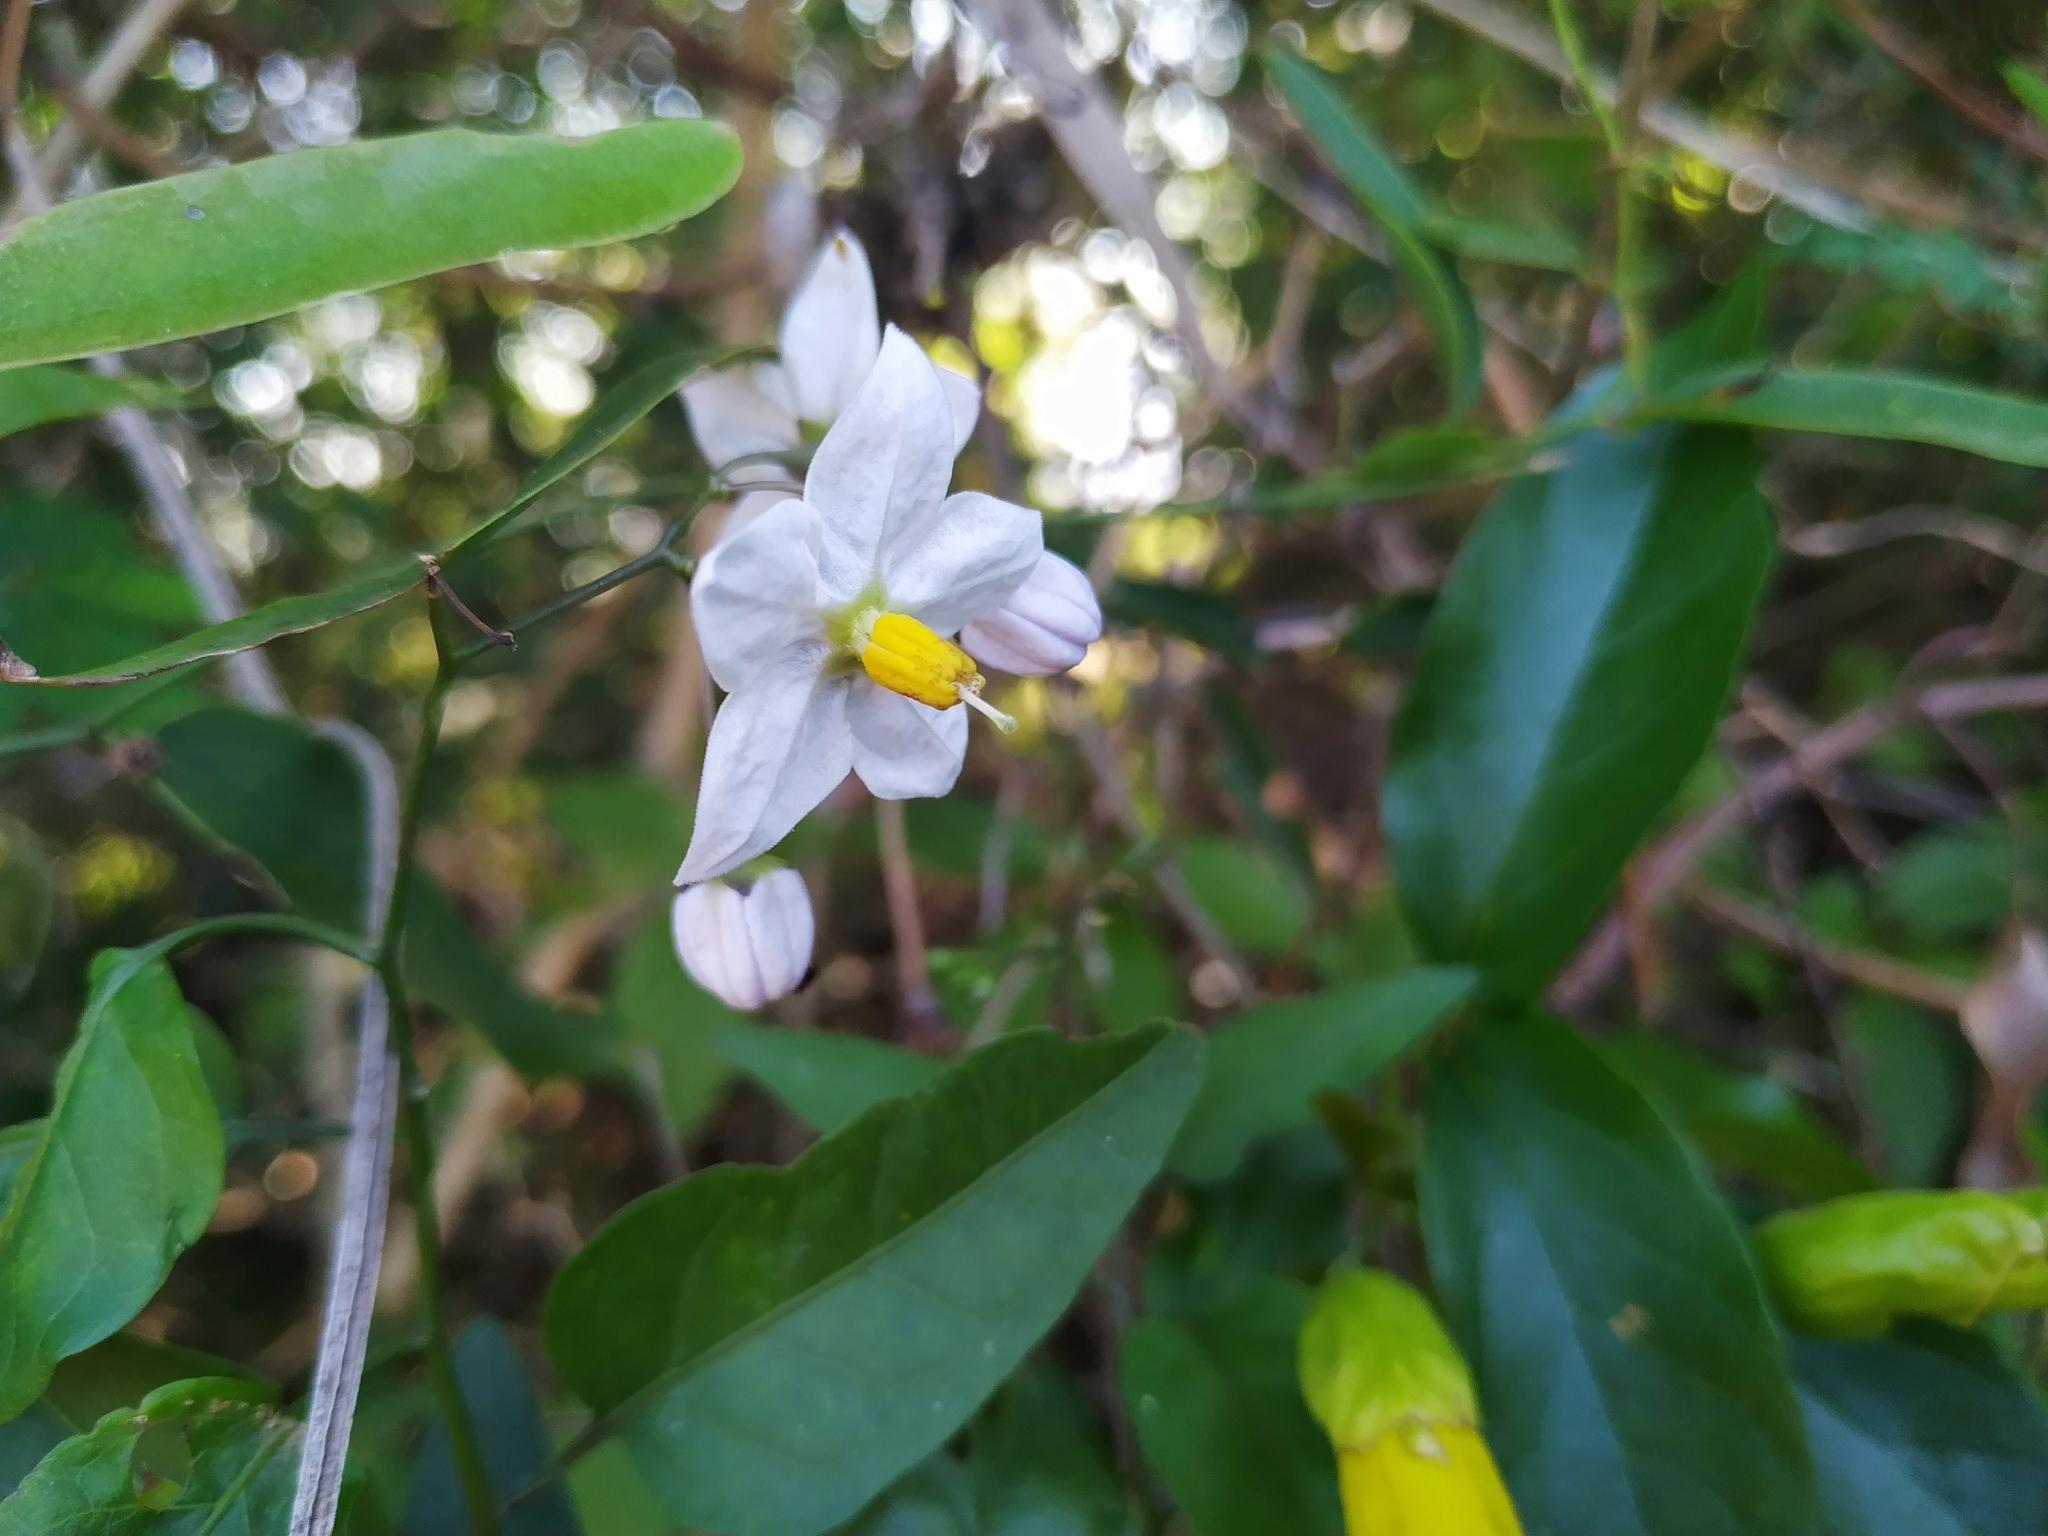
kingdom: Plantae
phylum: Tracheophyta
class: Magnoliopsida
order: Solanales
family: Solanaceae
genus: Solanum
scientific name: Solanum laxum
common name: Nightshade
